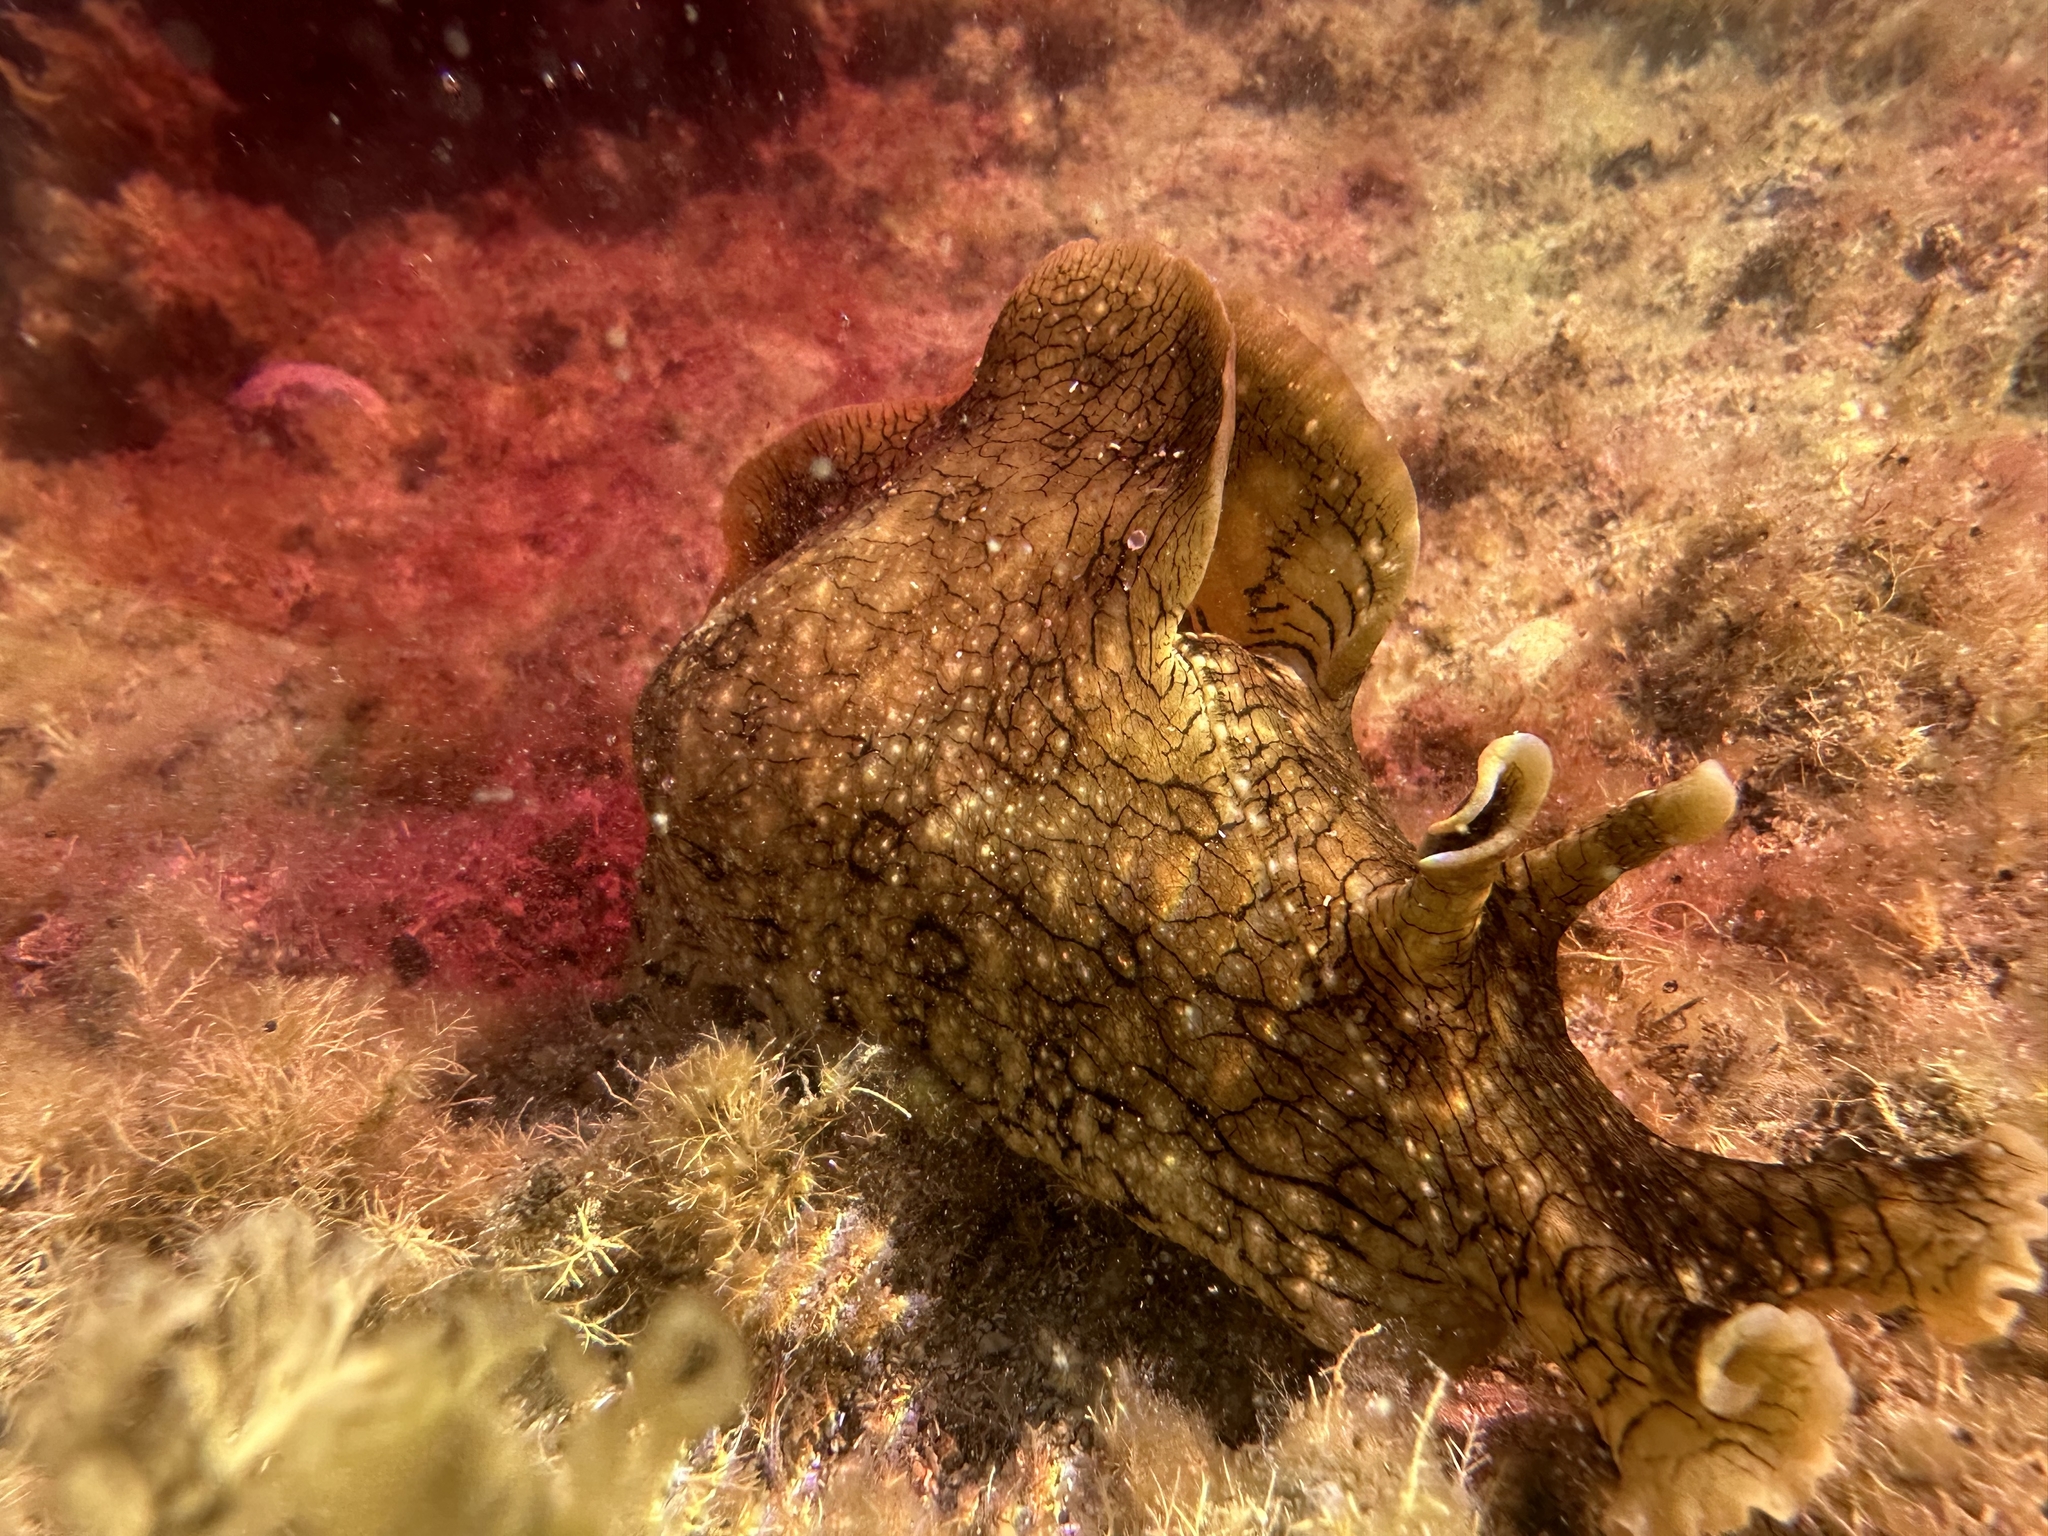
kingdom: Animalia
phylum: Mollusca
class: Gastropoda
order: Aplysiida
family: Aplysiidae
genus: Aplysia
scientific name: Aplysia argus
